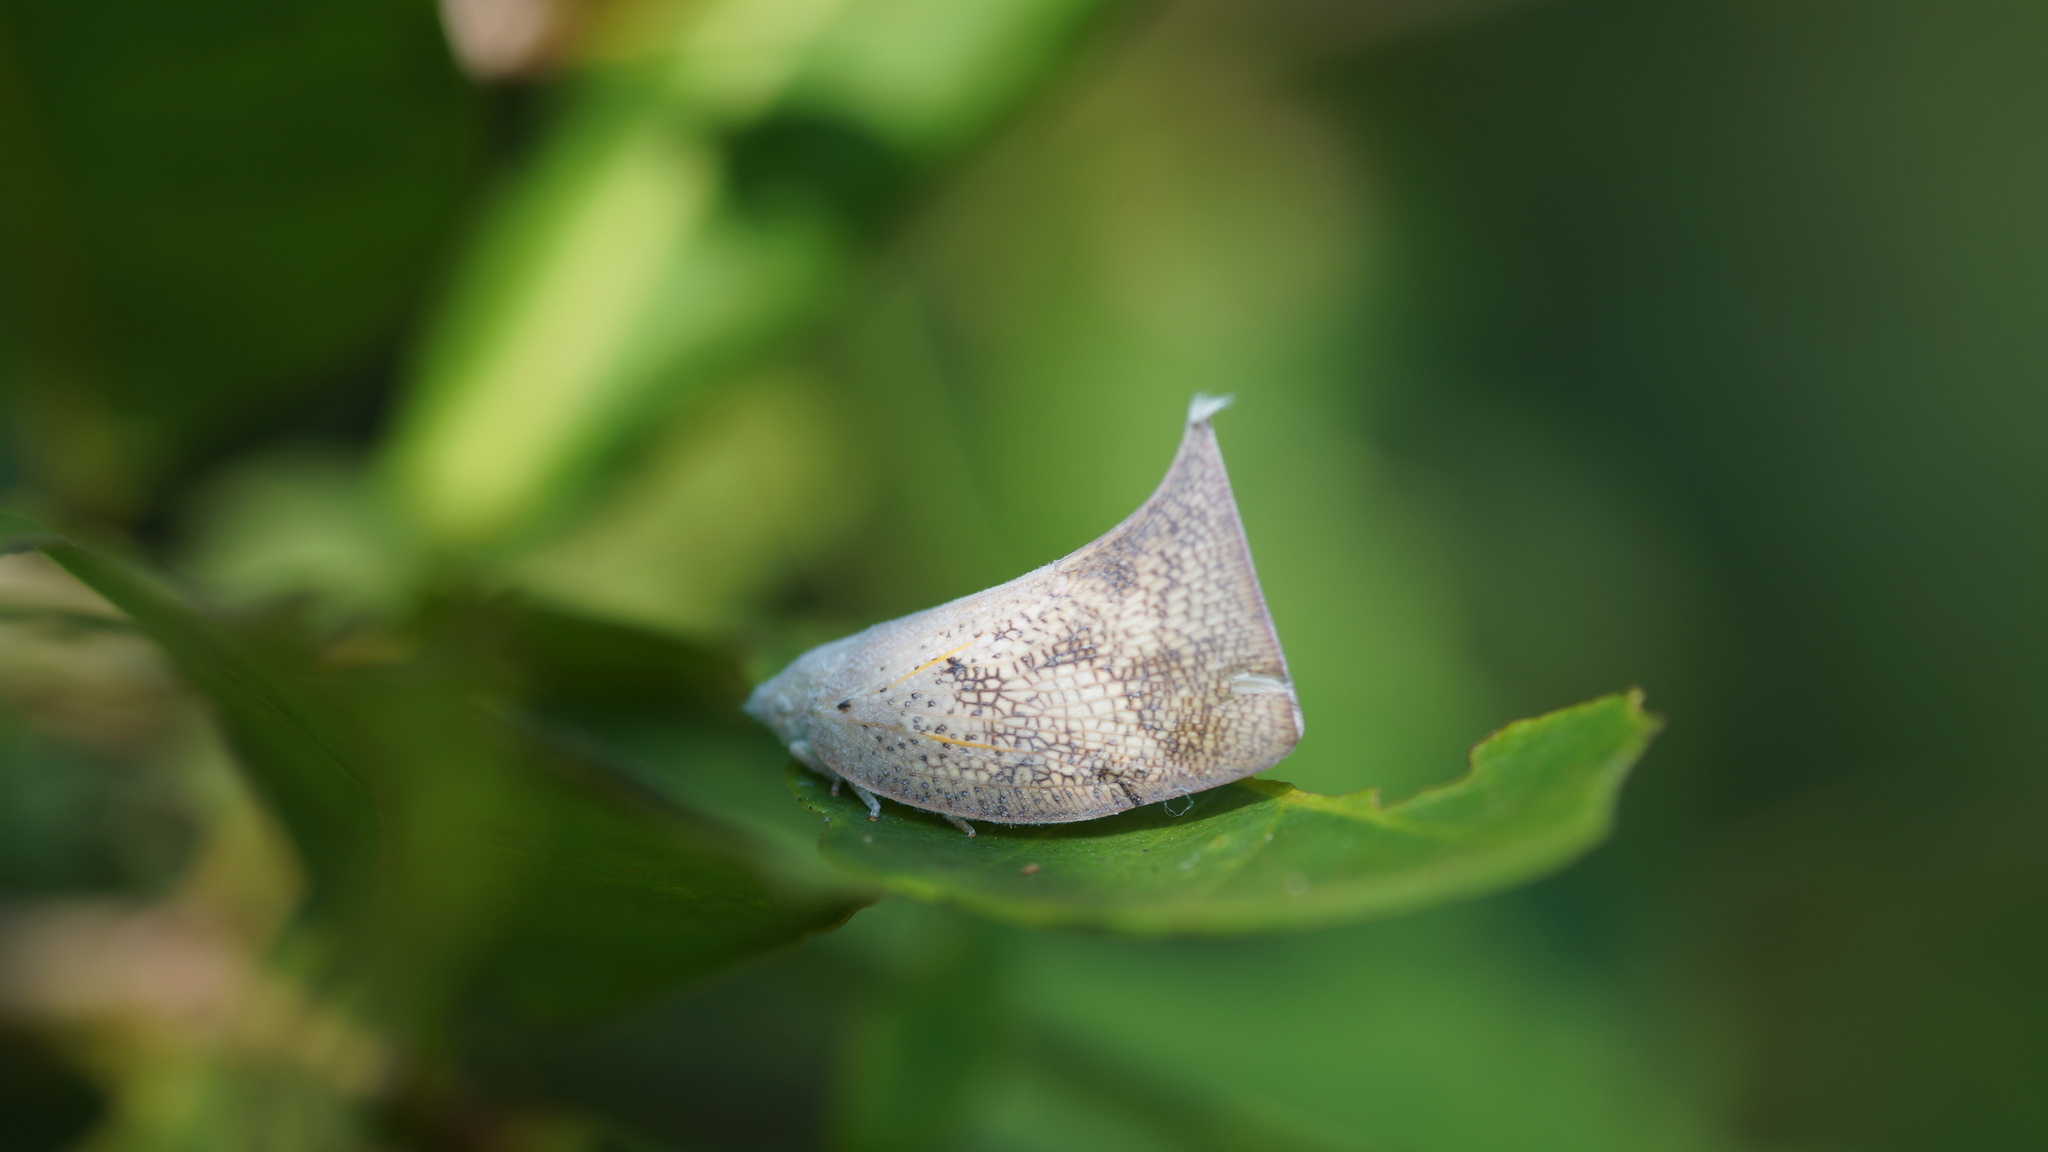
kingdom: Animalia
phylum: Arthropoda
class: Insecta
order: Hemiptera
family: Flatidae
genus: Lawana
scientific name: Lawana conspersa
